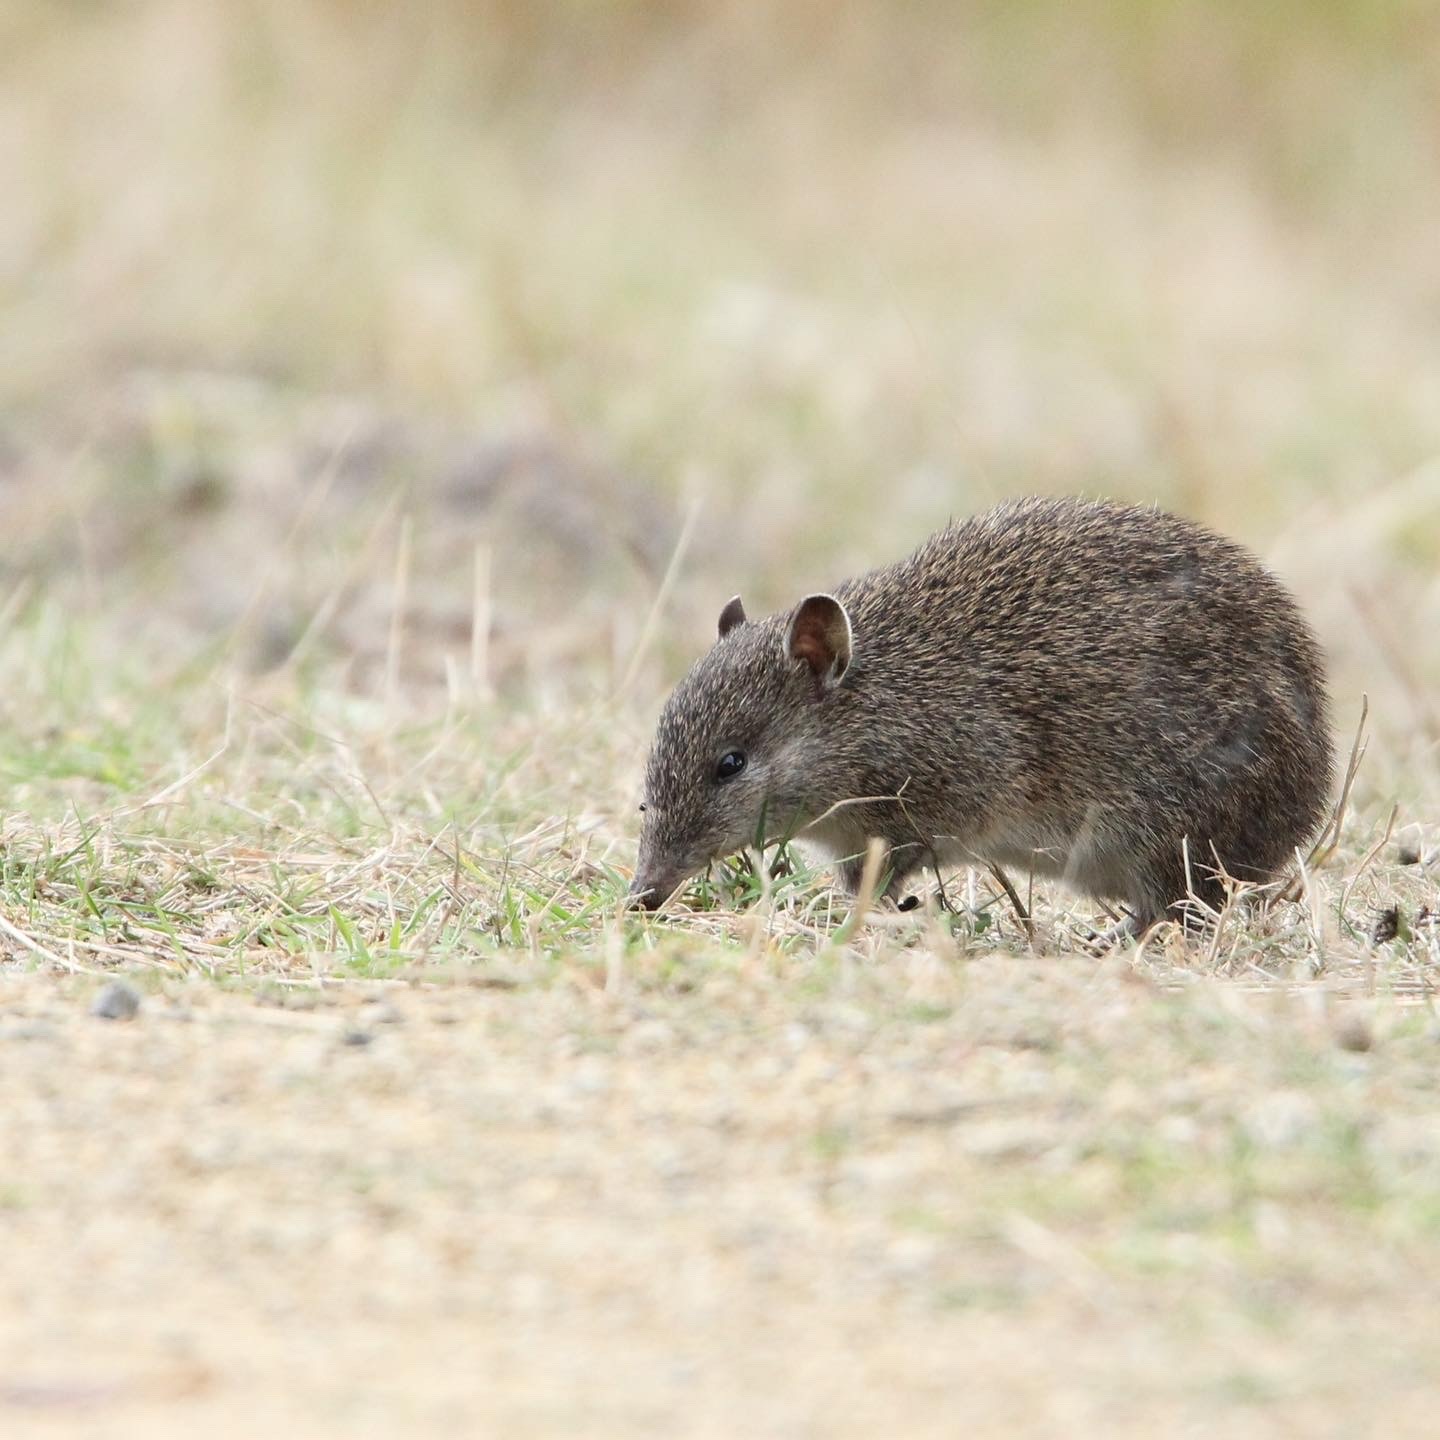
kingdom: Animalia
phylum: Chordata
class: Mammalia
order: Peramelemorphia
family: Peramelidae
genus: Isoodon
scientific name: Isoodon obesulus
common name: Southern brown bandicoot
